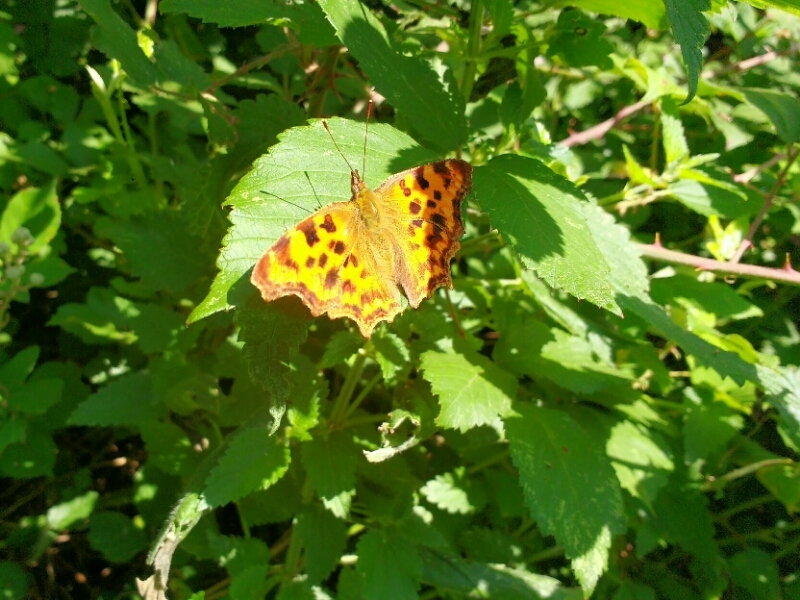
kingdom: Animalia
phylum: Arthropoda
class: Insecta
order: Lepidoptera
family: Nymphalidae
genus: Polygonia
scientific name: Polygonia c-album
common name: Comma
